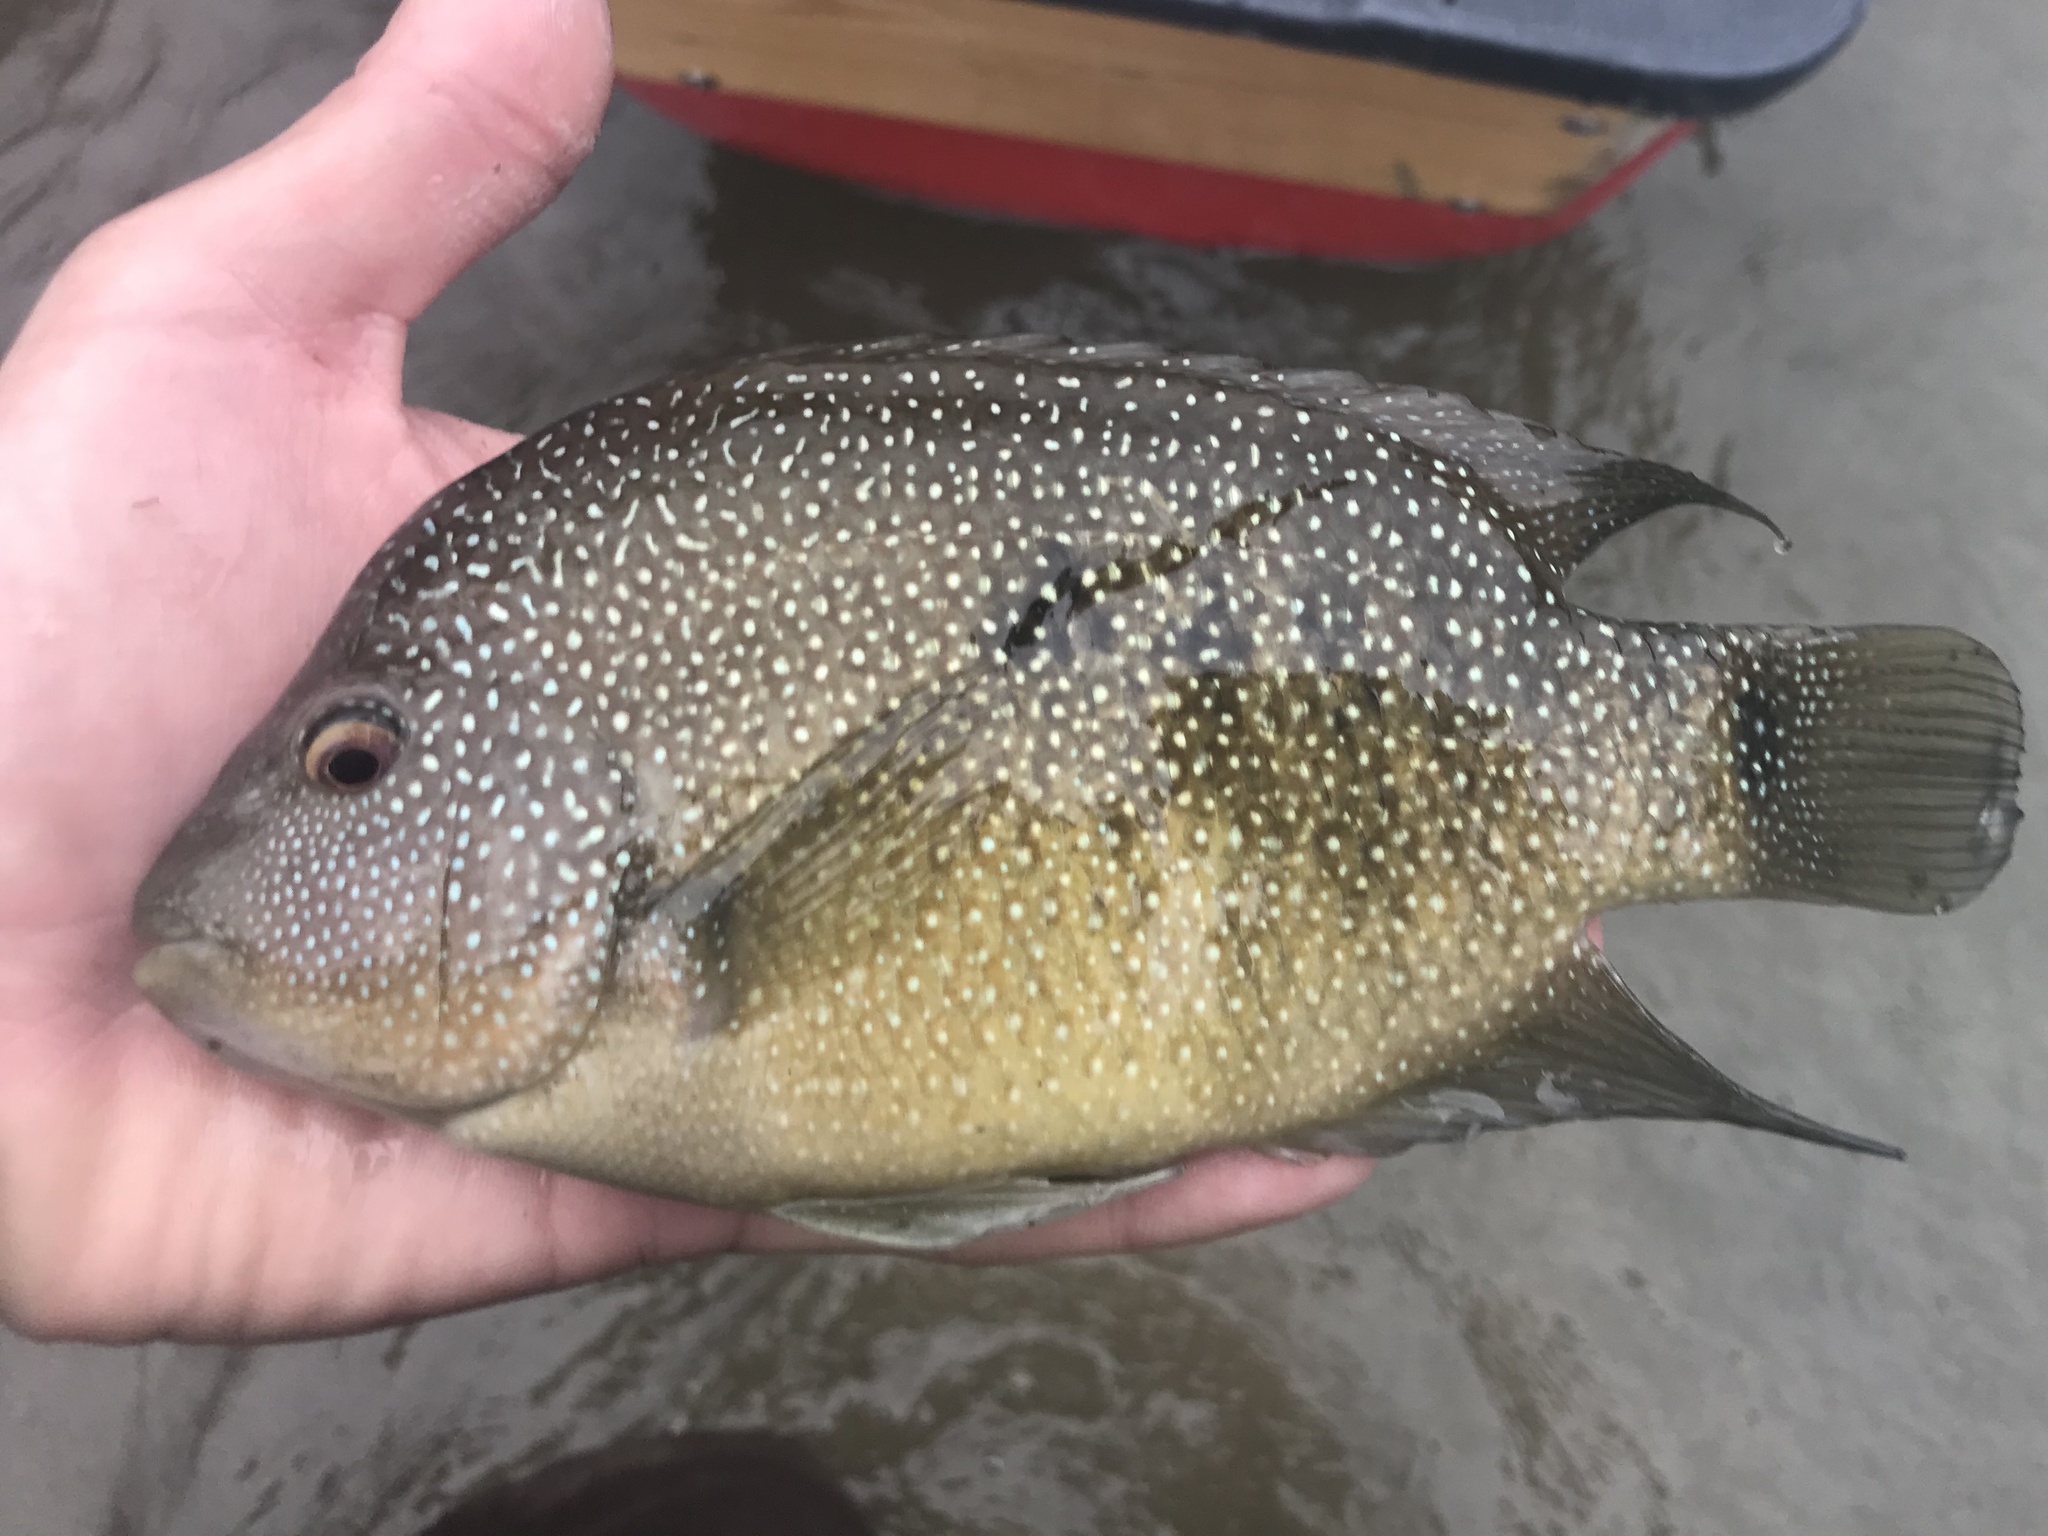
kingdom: Animalia
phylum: Chordata
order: Perciformes
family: Cichlidae
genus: Herichthys
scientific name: Herichthys cyanoguttatus
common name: Rio grande cichlid
